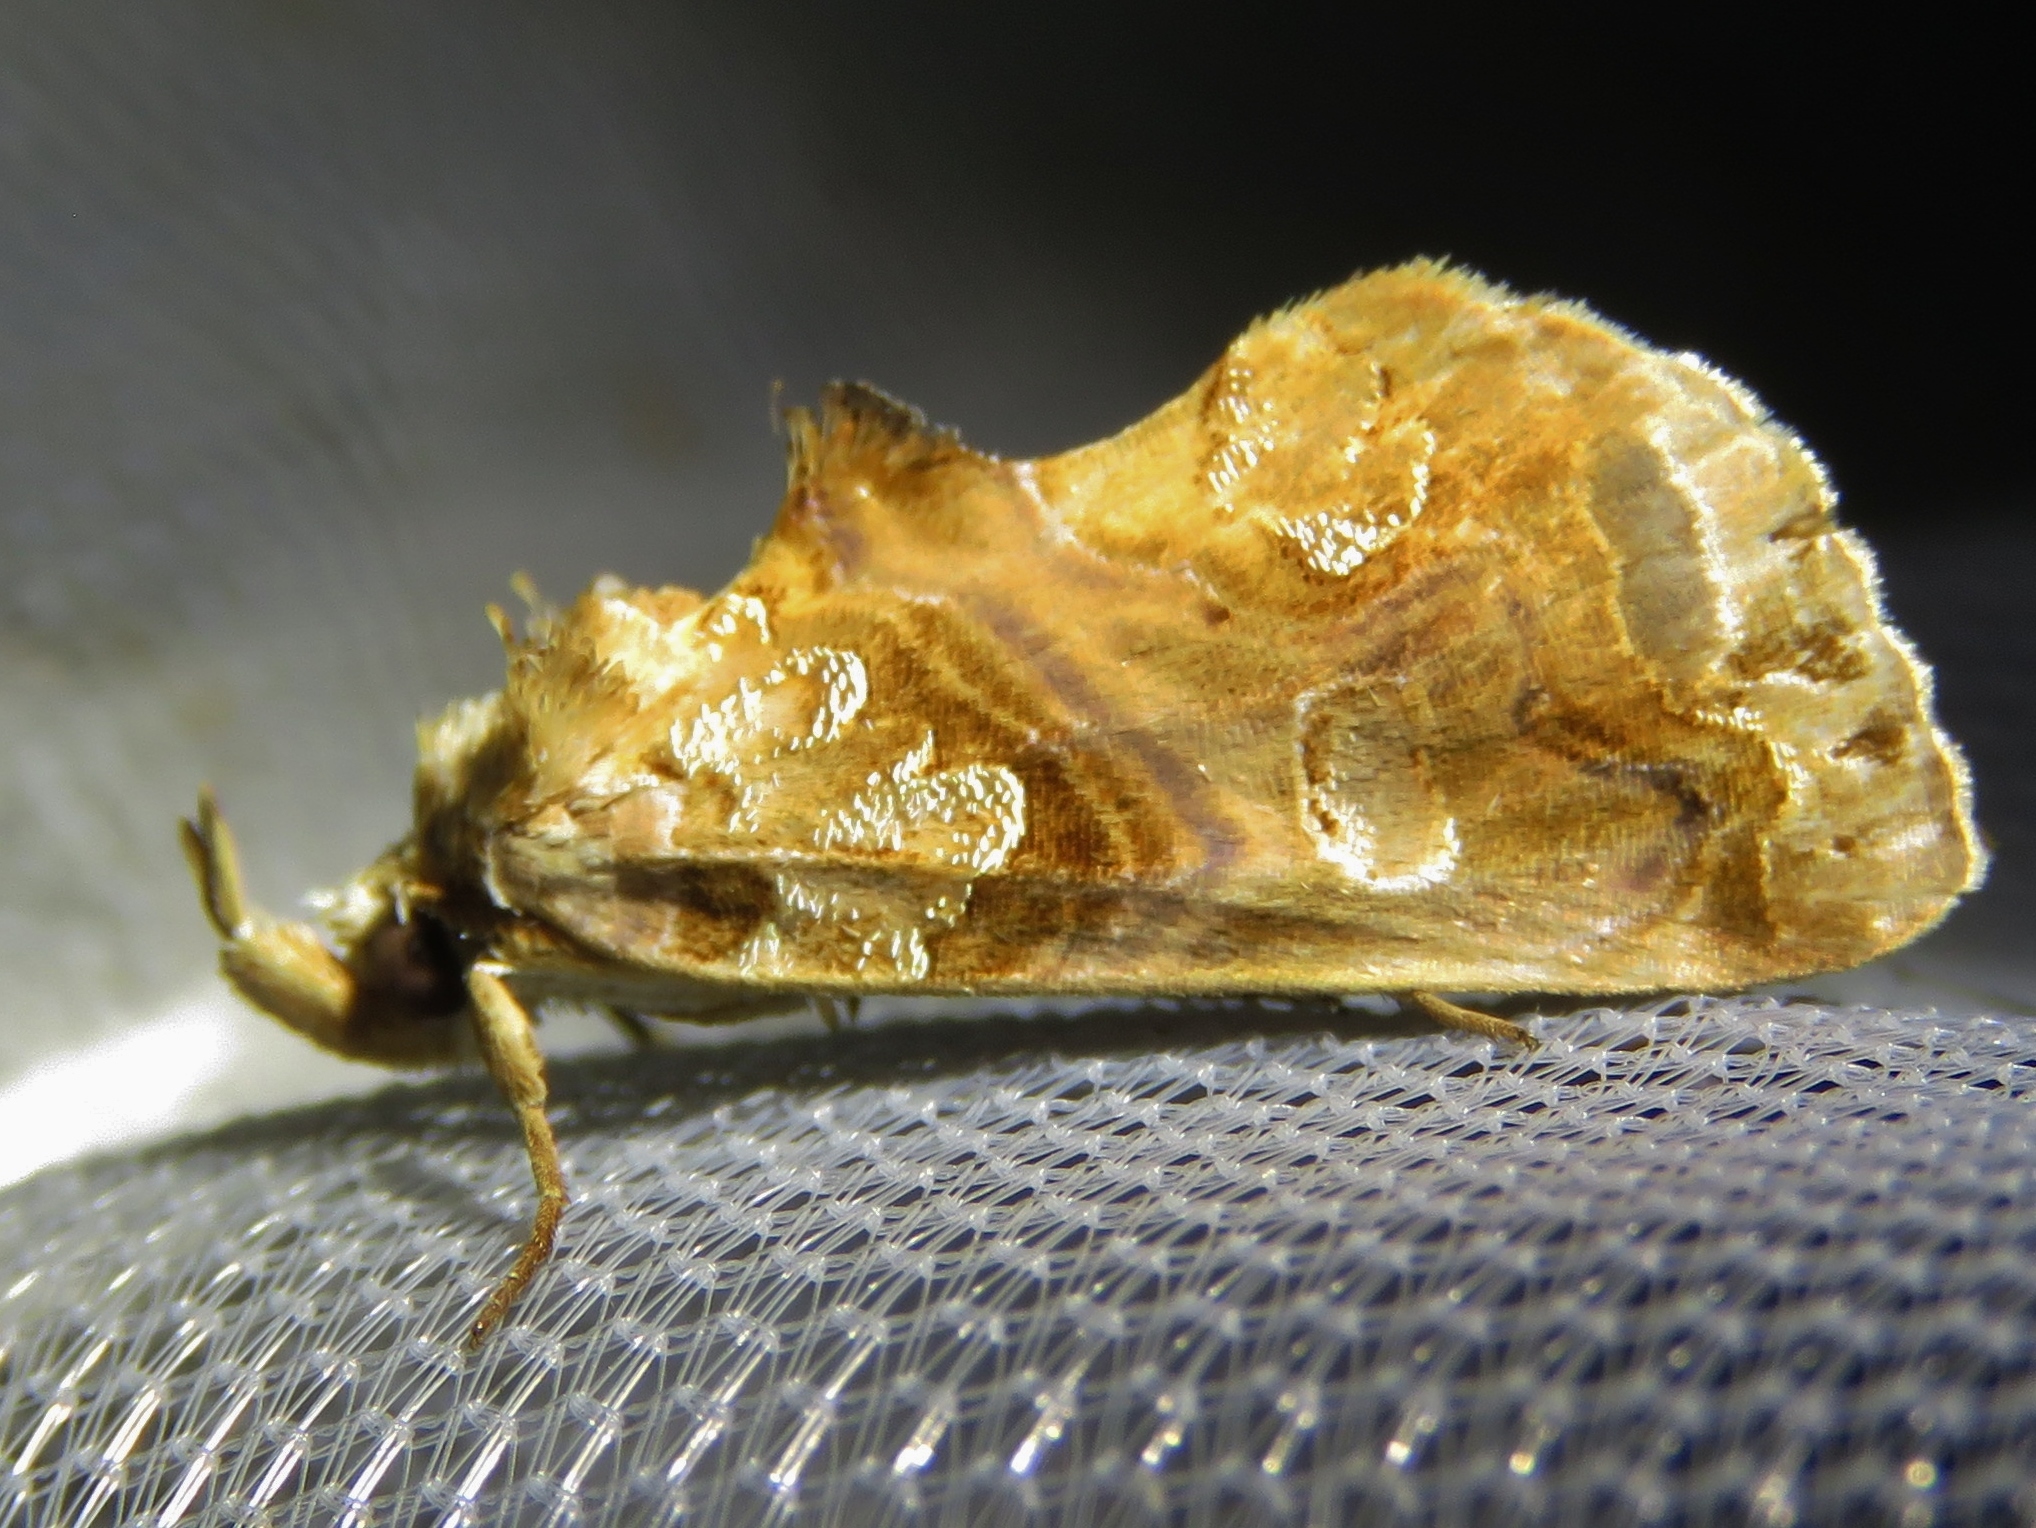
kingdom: Animalia
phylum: Arthropoda
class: Insecta
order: Lepidoptera
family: Erebidae
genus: Plusiodonta
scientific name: Plusiodonta compressipalpis
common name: Moonseed moth
